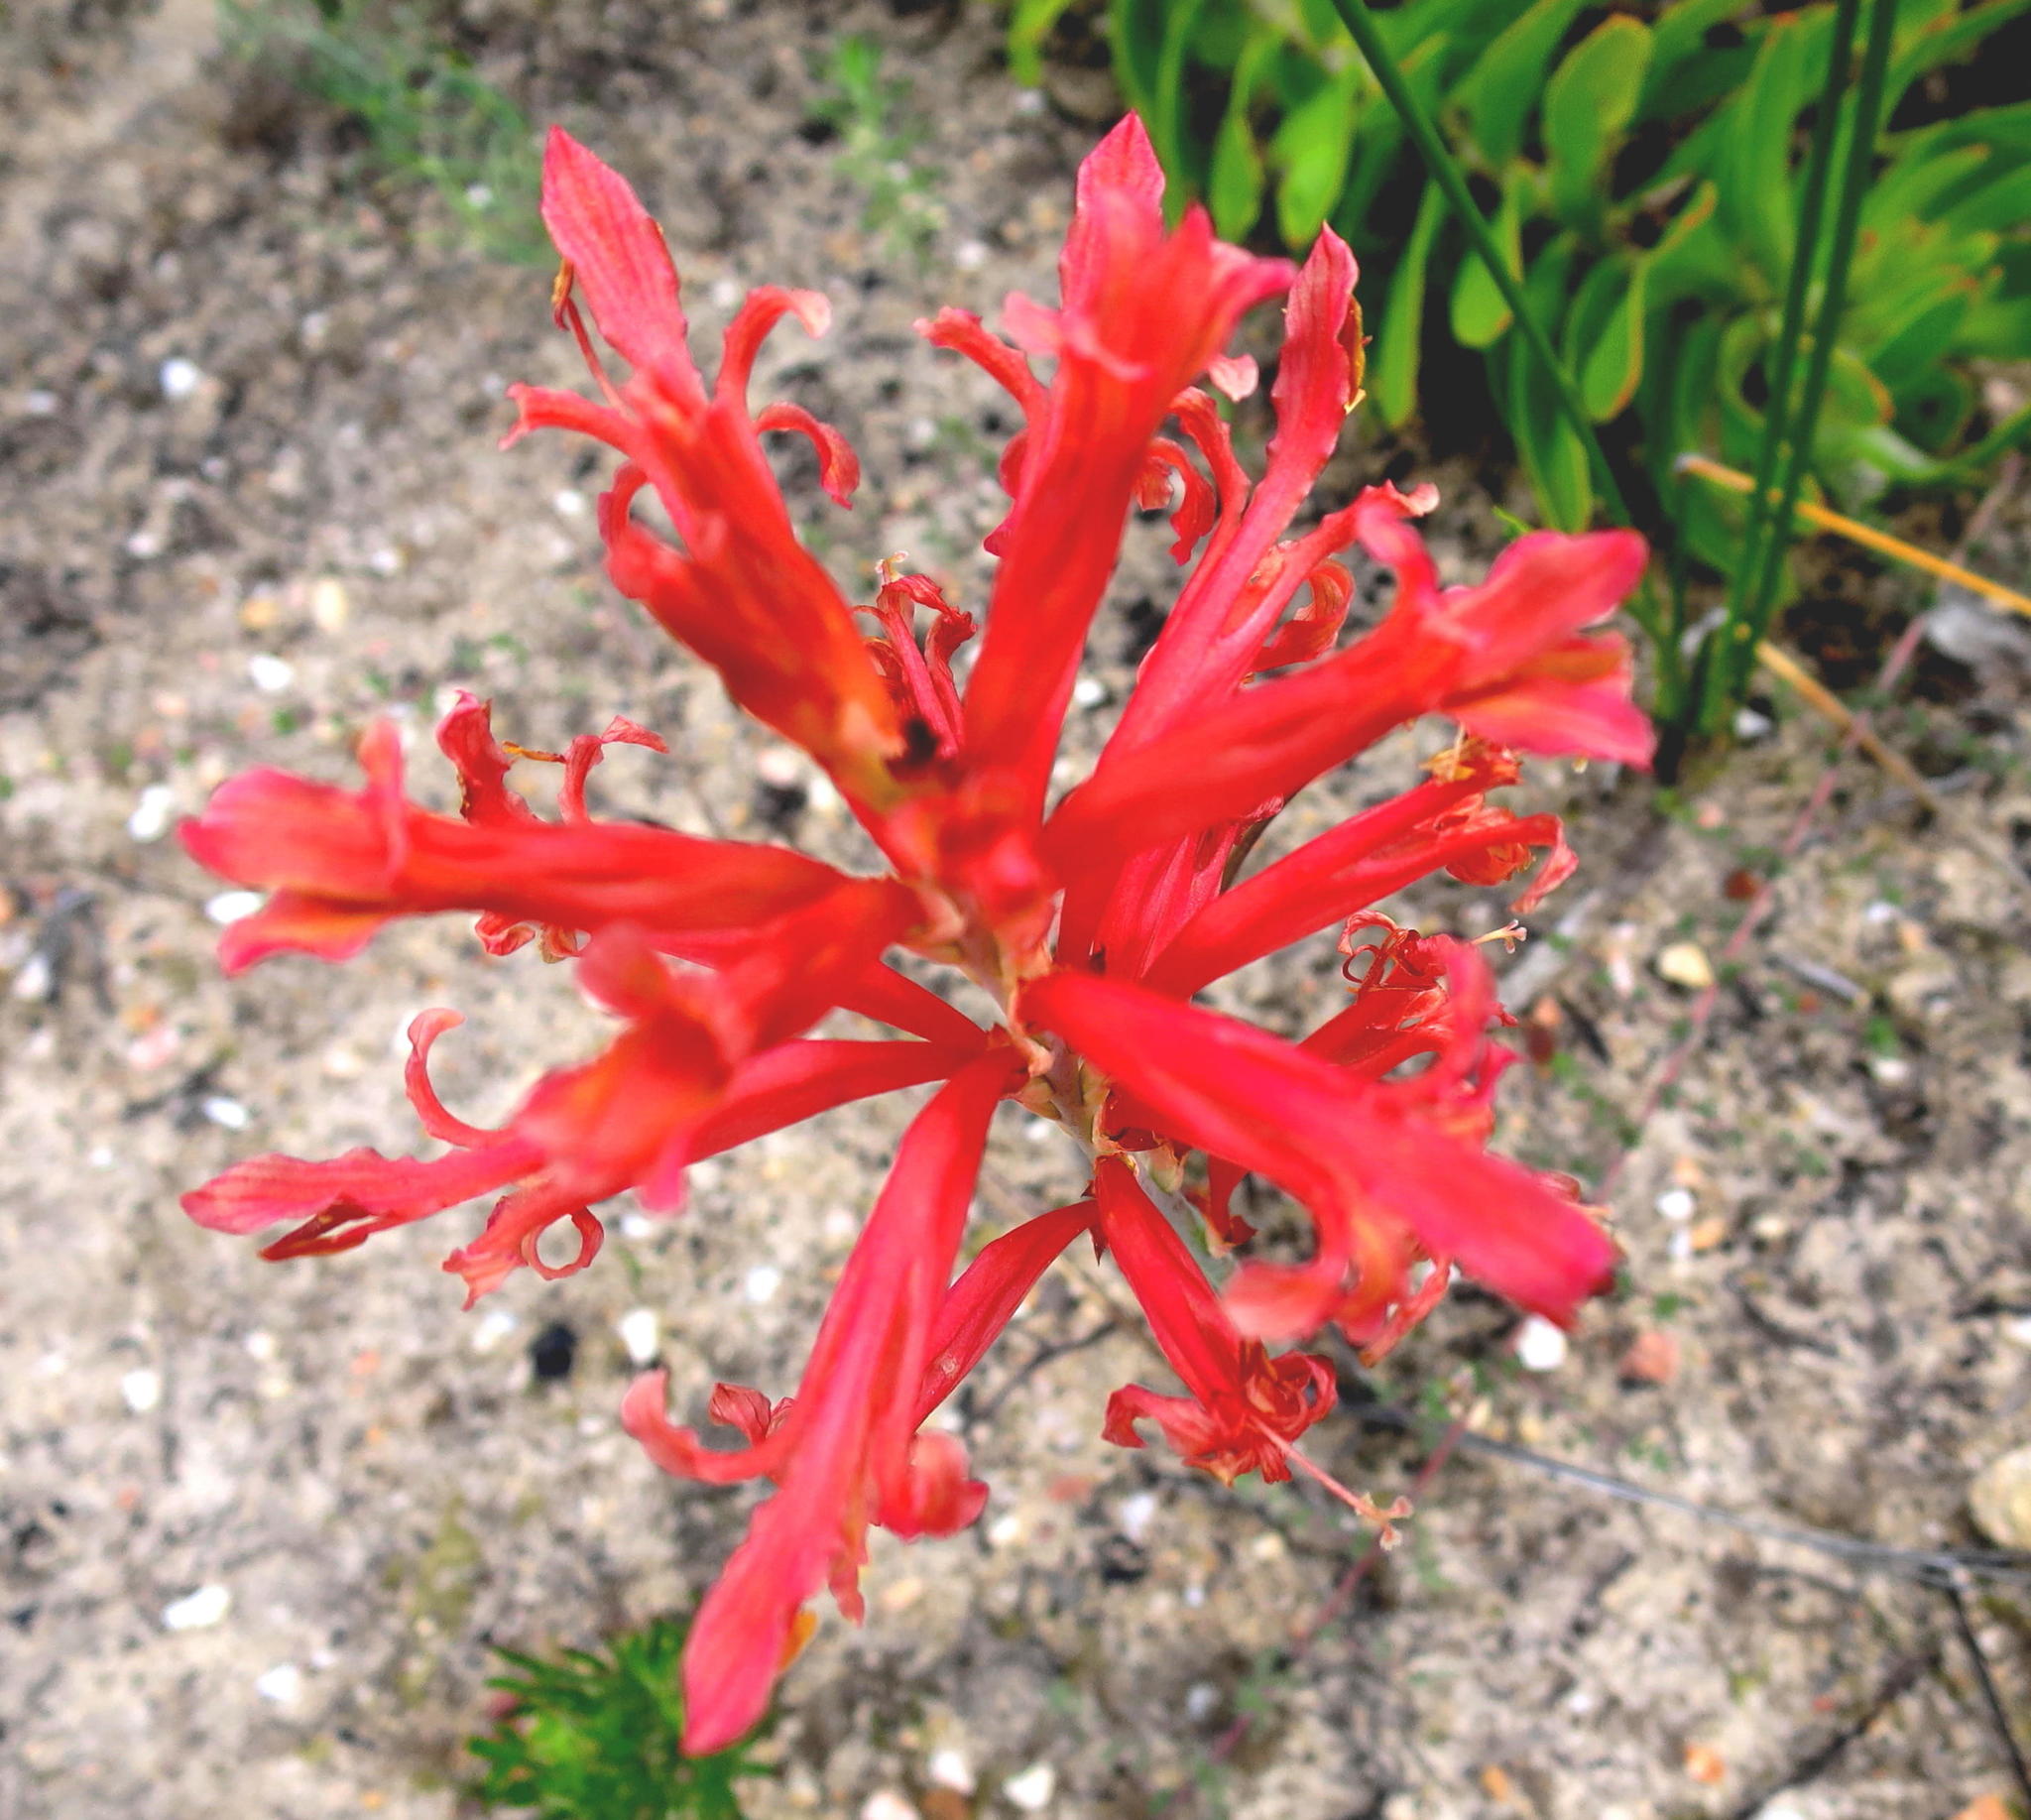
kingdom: Plantae
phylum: Tracheophyta
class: Liliopsida
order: Asparagales
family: Iridaceae
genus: Tritoniopsis
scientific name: Tritoniopsis antholyza
